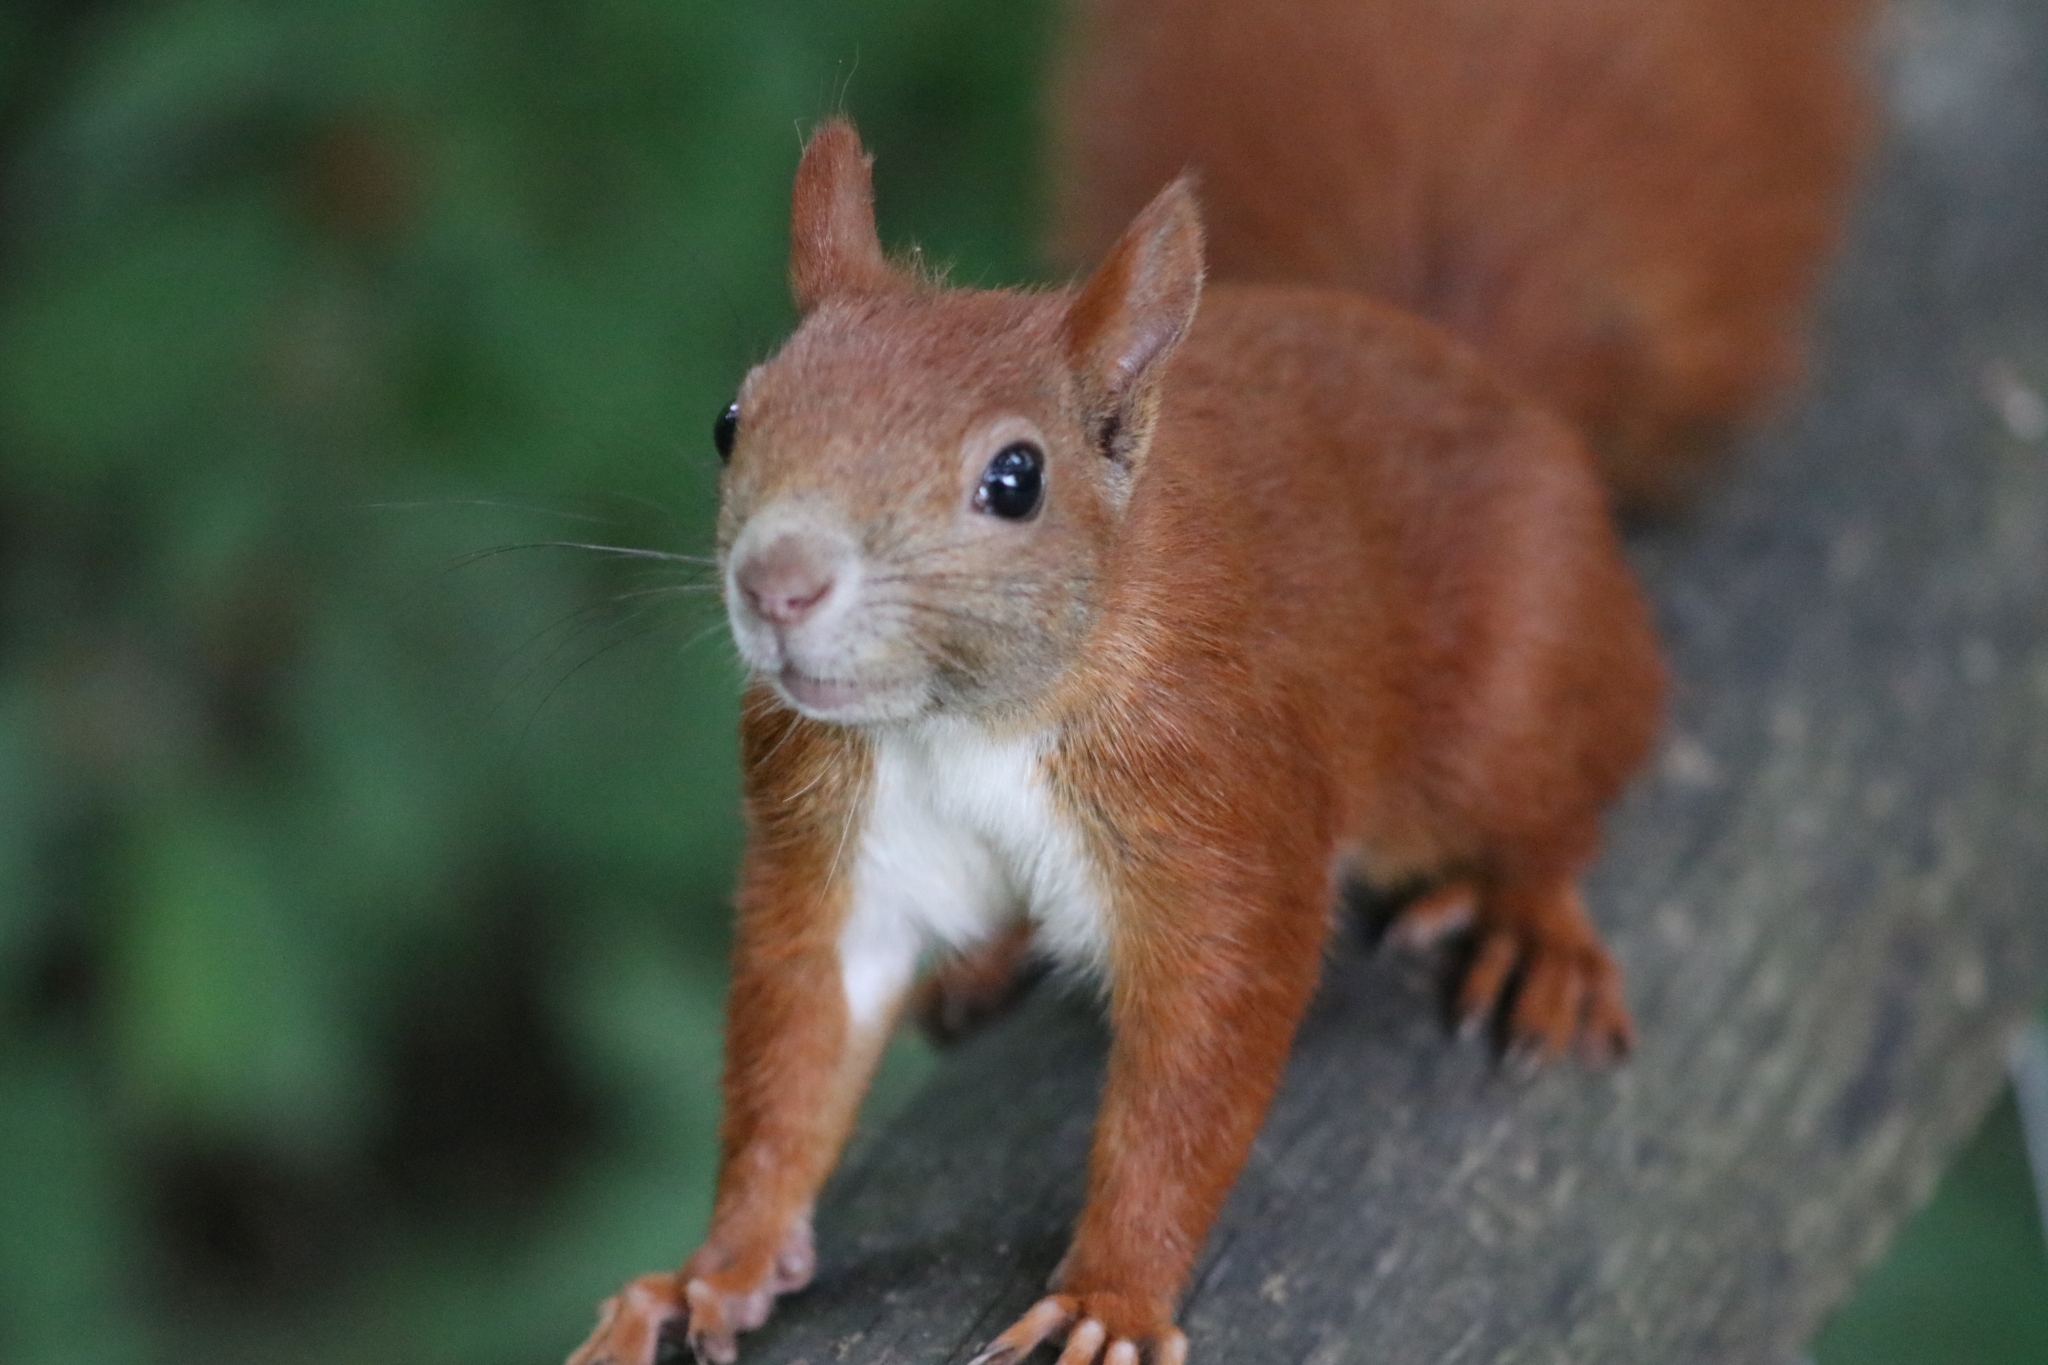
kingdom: Animalia
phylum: Chordata
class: Mammalia
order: Rodentia
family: Sciuridae
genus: Sciurus
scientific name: Sciurus vulgaris
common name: Eurasian red squirrel
